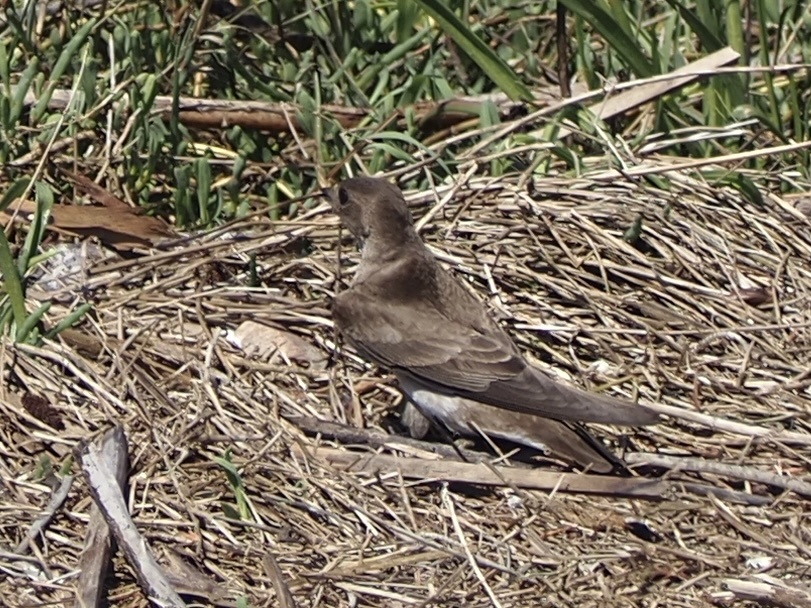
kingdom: Animalia
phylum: Chordata
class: Aves
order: Passeriformes
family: Hirundinidae
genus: Stelgidopteryx
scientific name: Stelgidopteryx serripennis
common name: Northern rough-winged swallow
